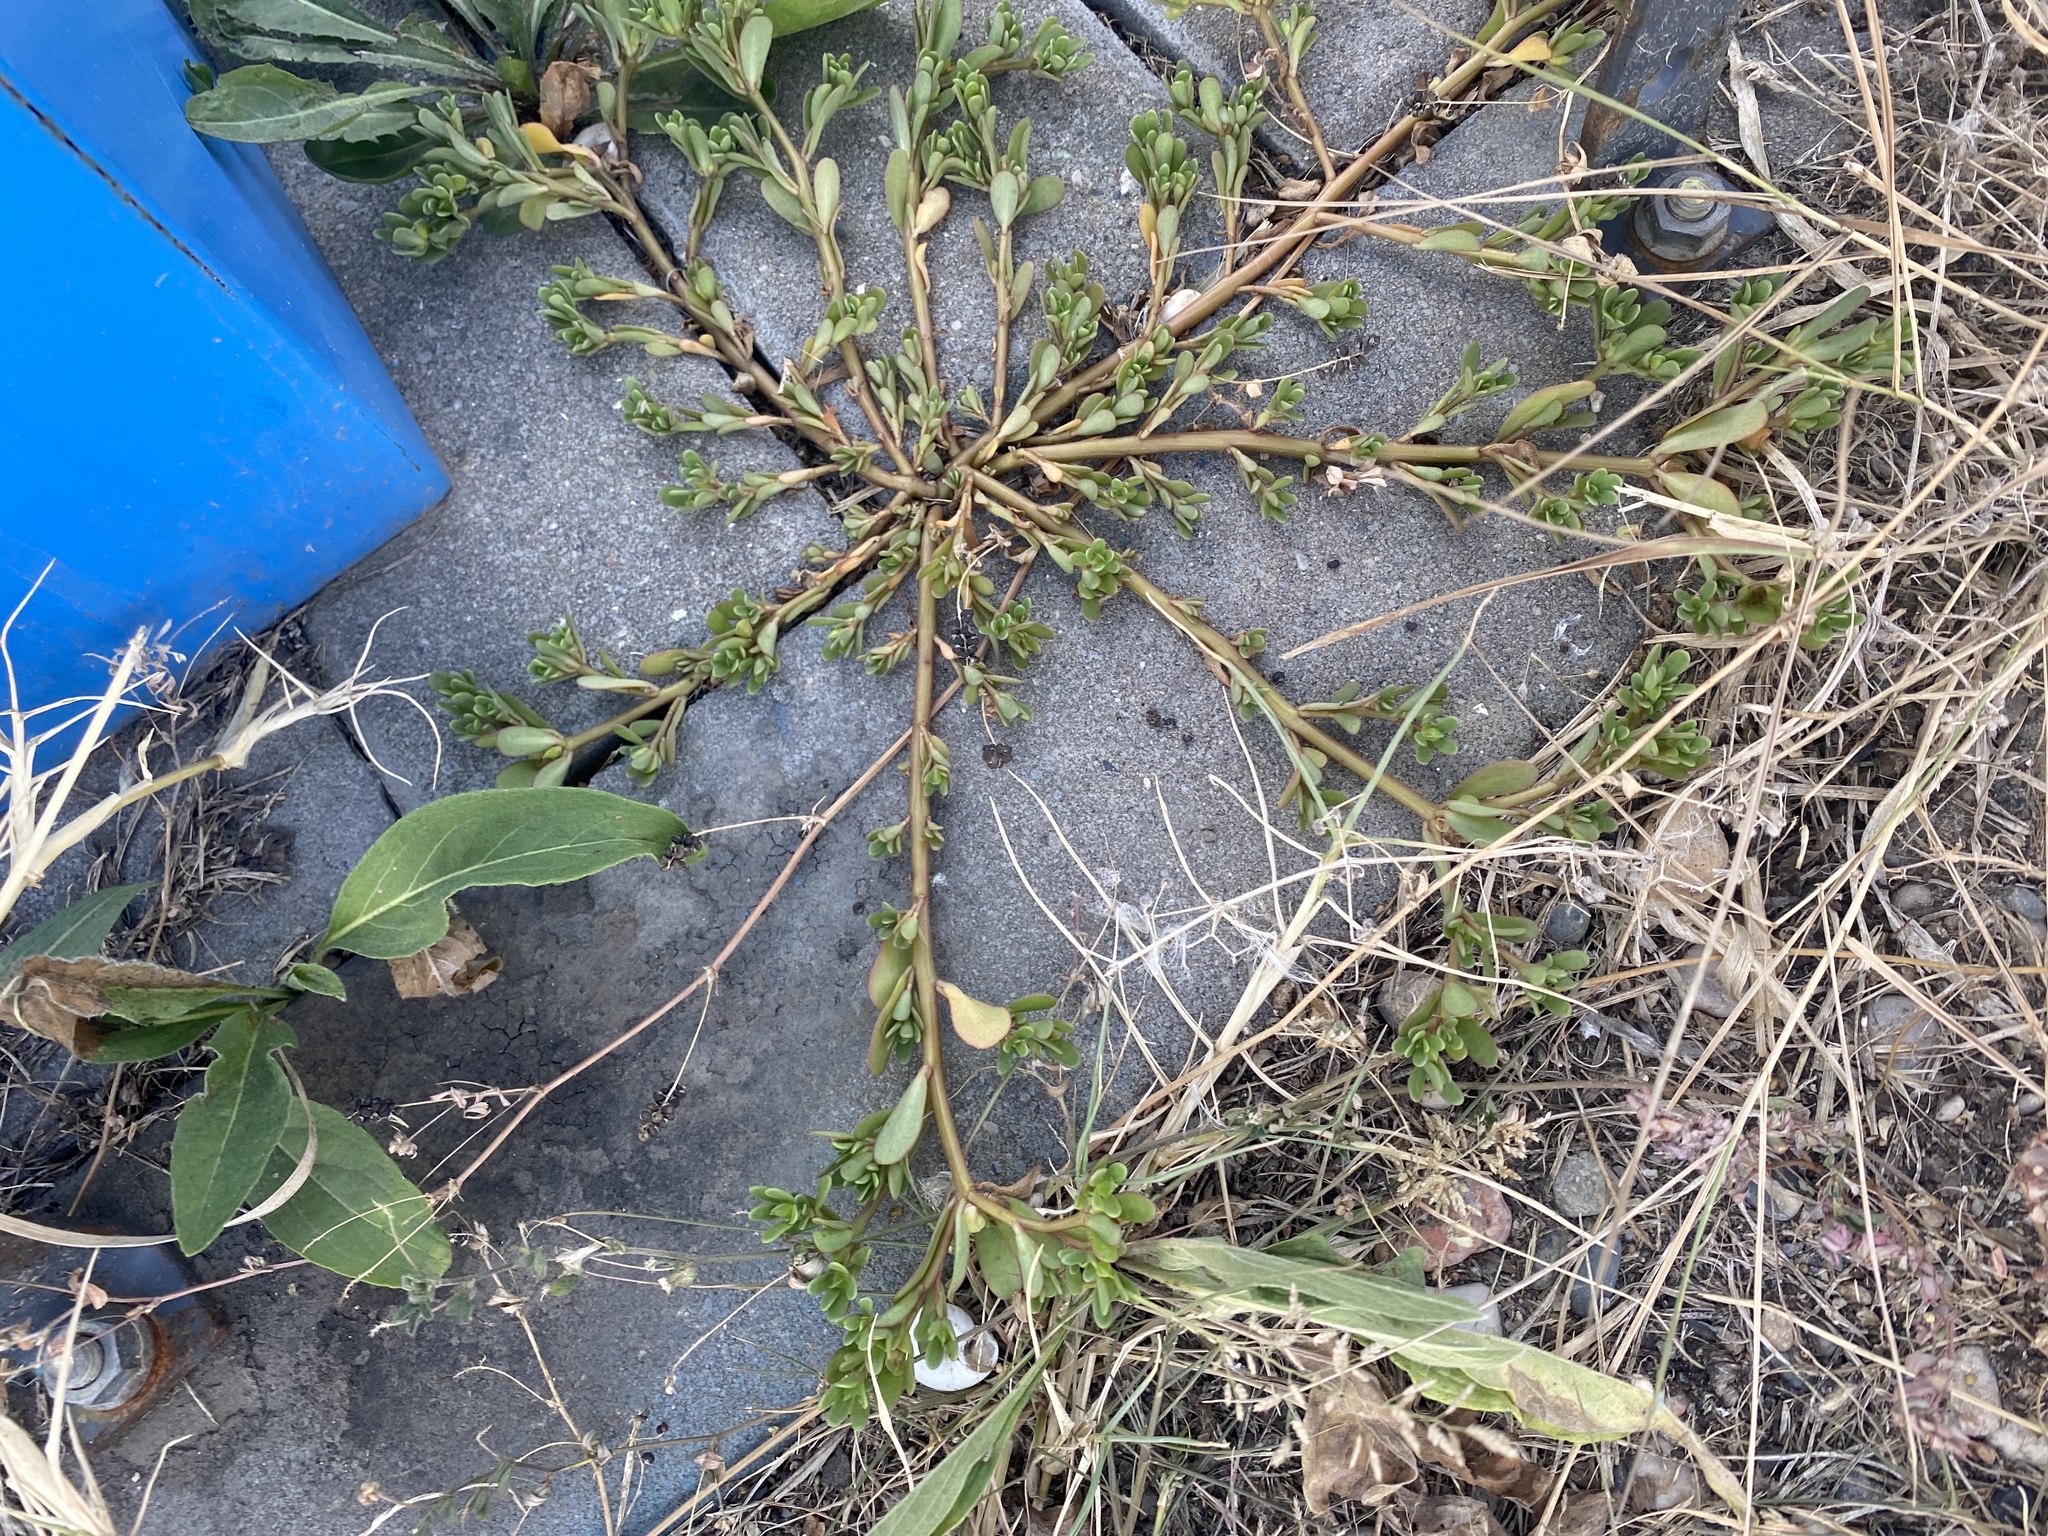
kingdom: Plantae
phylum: Tracheophyta
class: Magnoliopsida
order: Caryophyllales
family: Portulacaceae
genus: Portulaca
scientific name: Portulaca oleracea
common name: Common purslane
